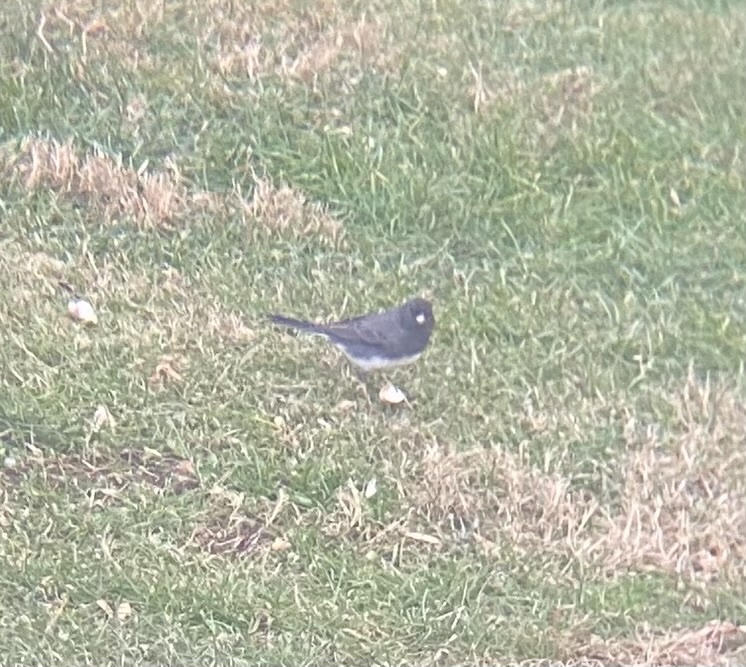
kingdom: Animalia
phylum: Chordata
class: Aves
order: Passeriformes
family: Passerellidae
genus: Junco
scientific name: Junco hyemalis
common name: Dark-eyed junco
